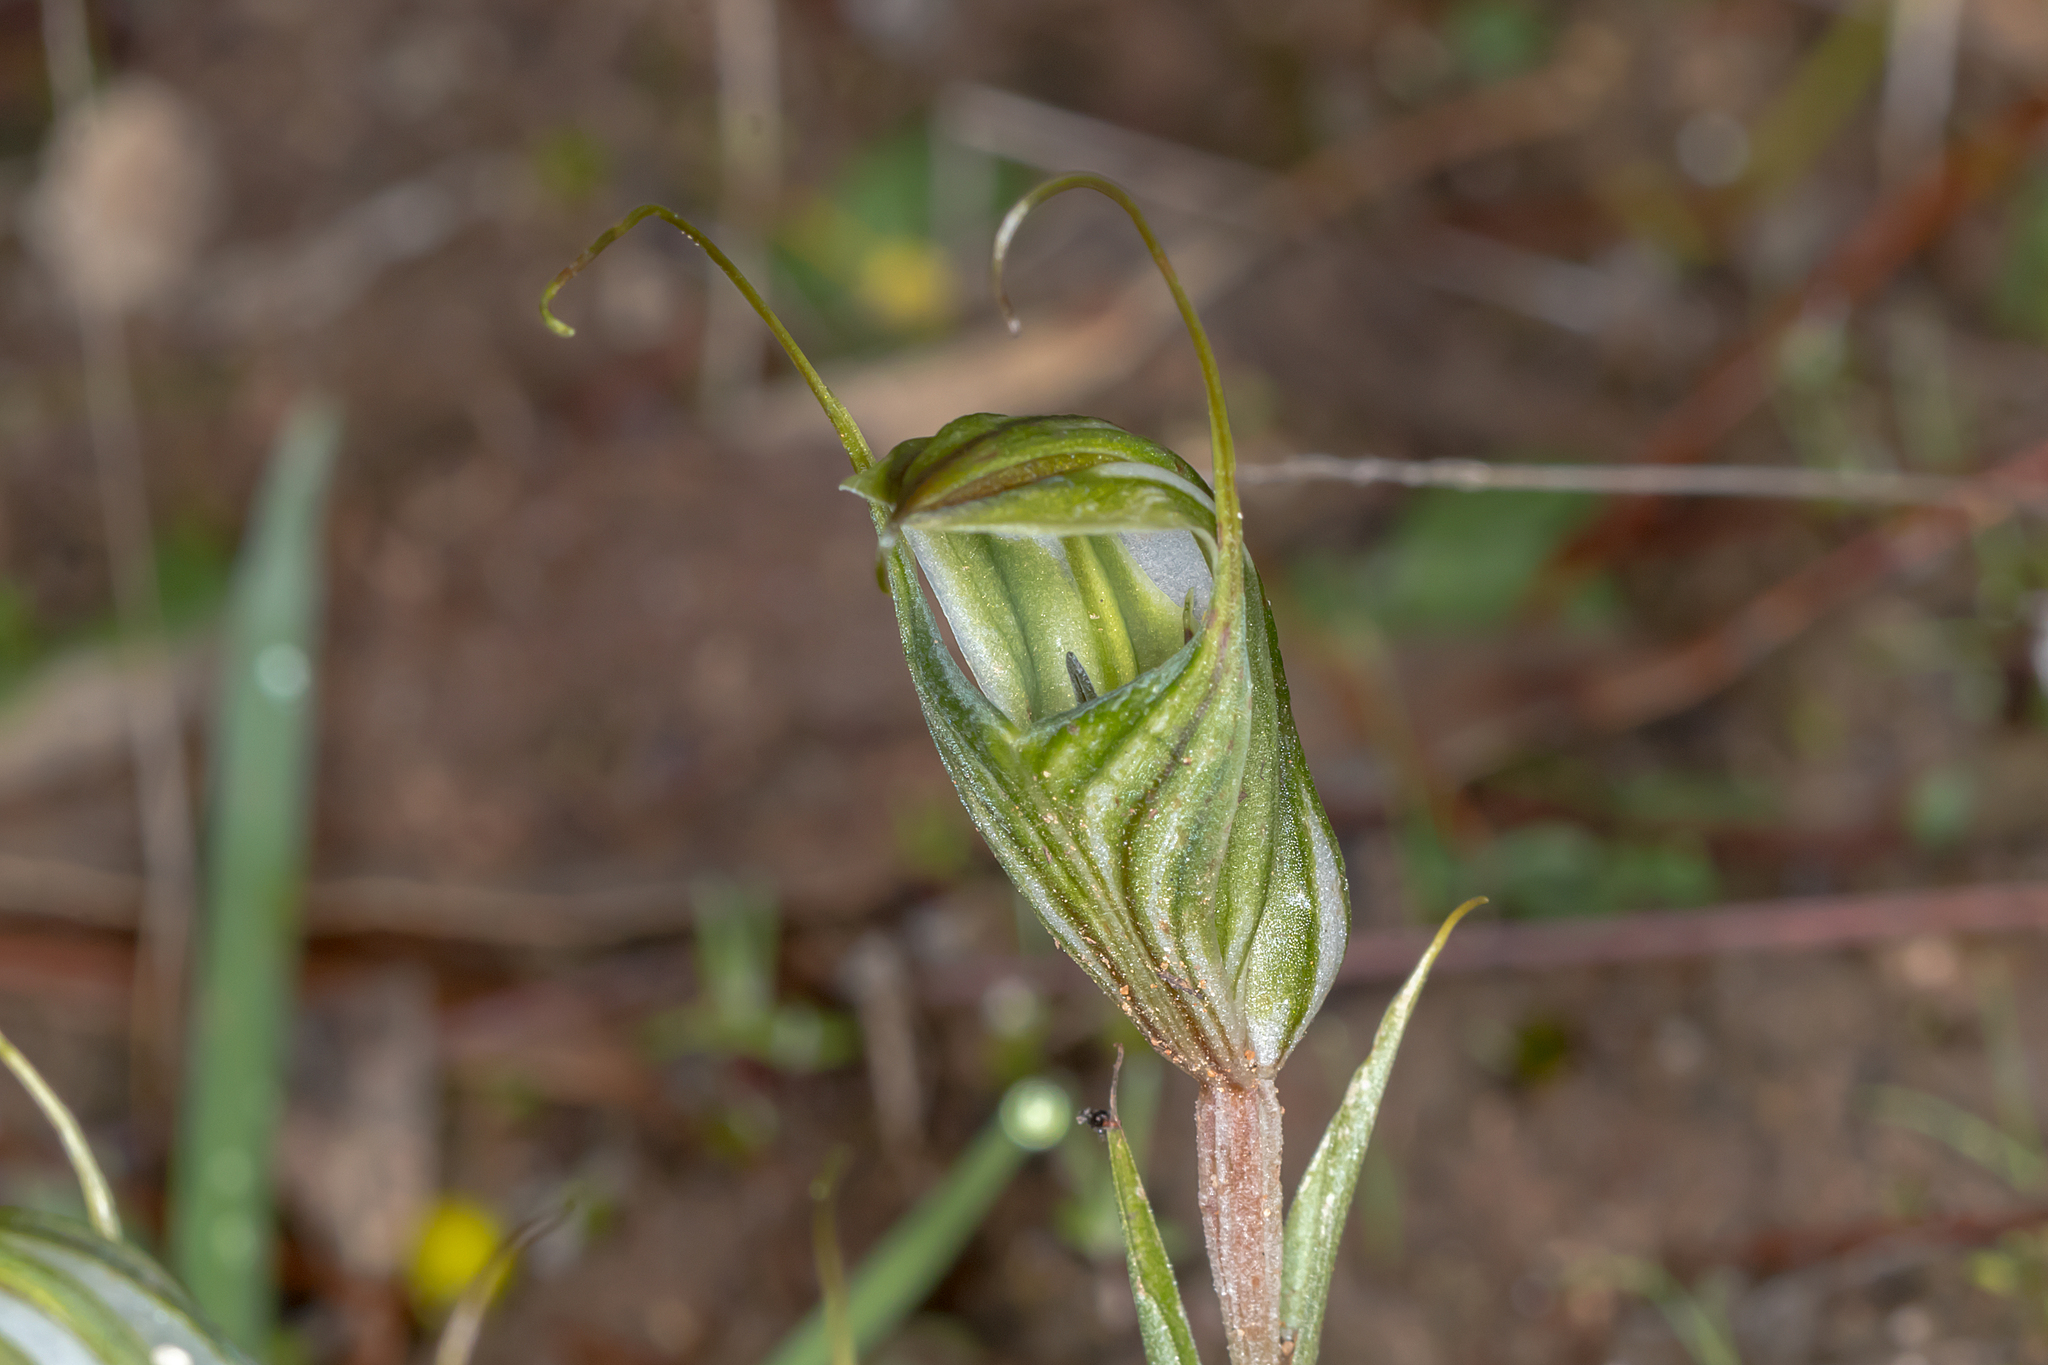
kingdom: Plantae
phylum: Tracheophyta
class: Liliopsida
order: Asparagales
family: Orchidaceae
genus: Pterostylis
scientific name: Pterostylis robusta
